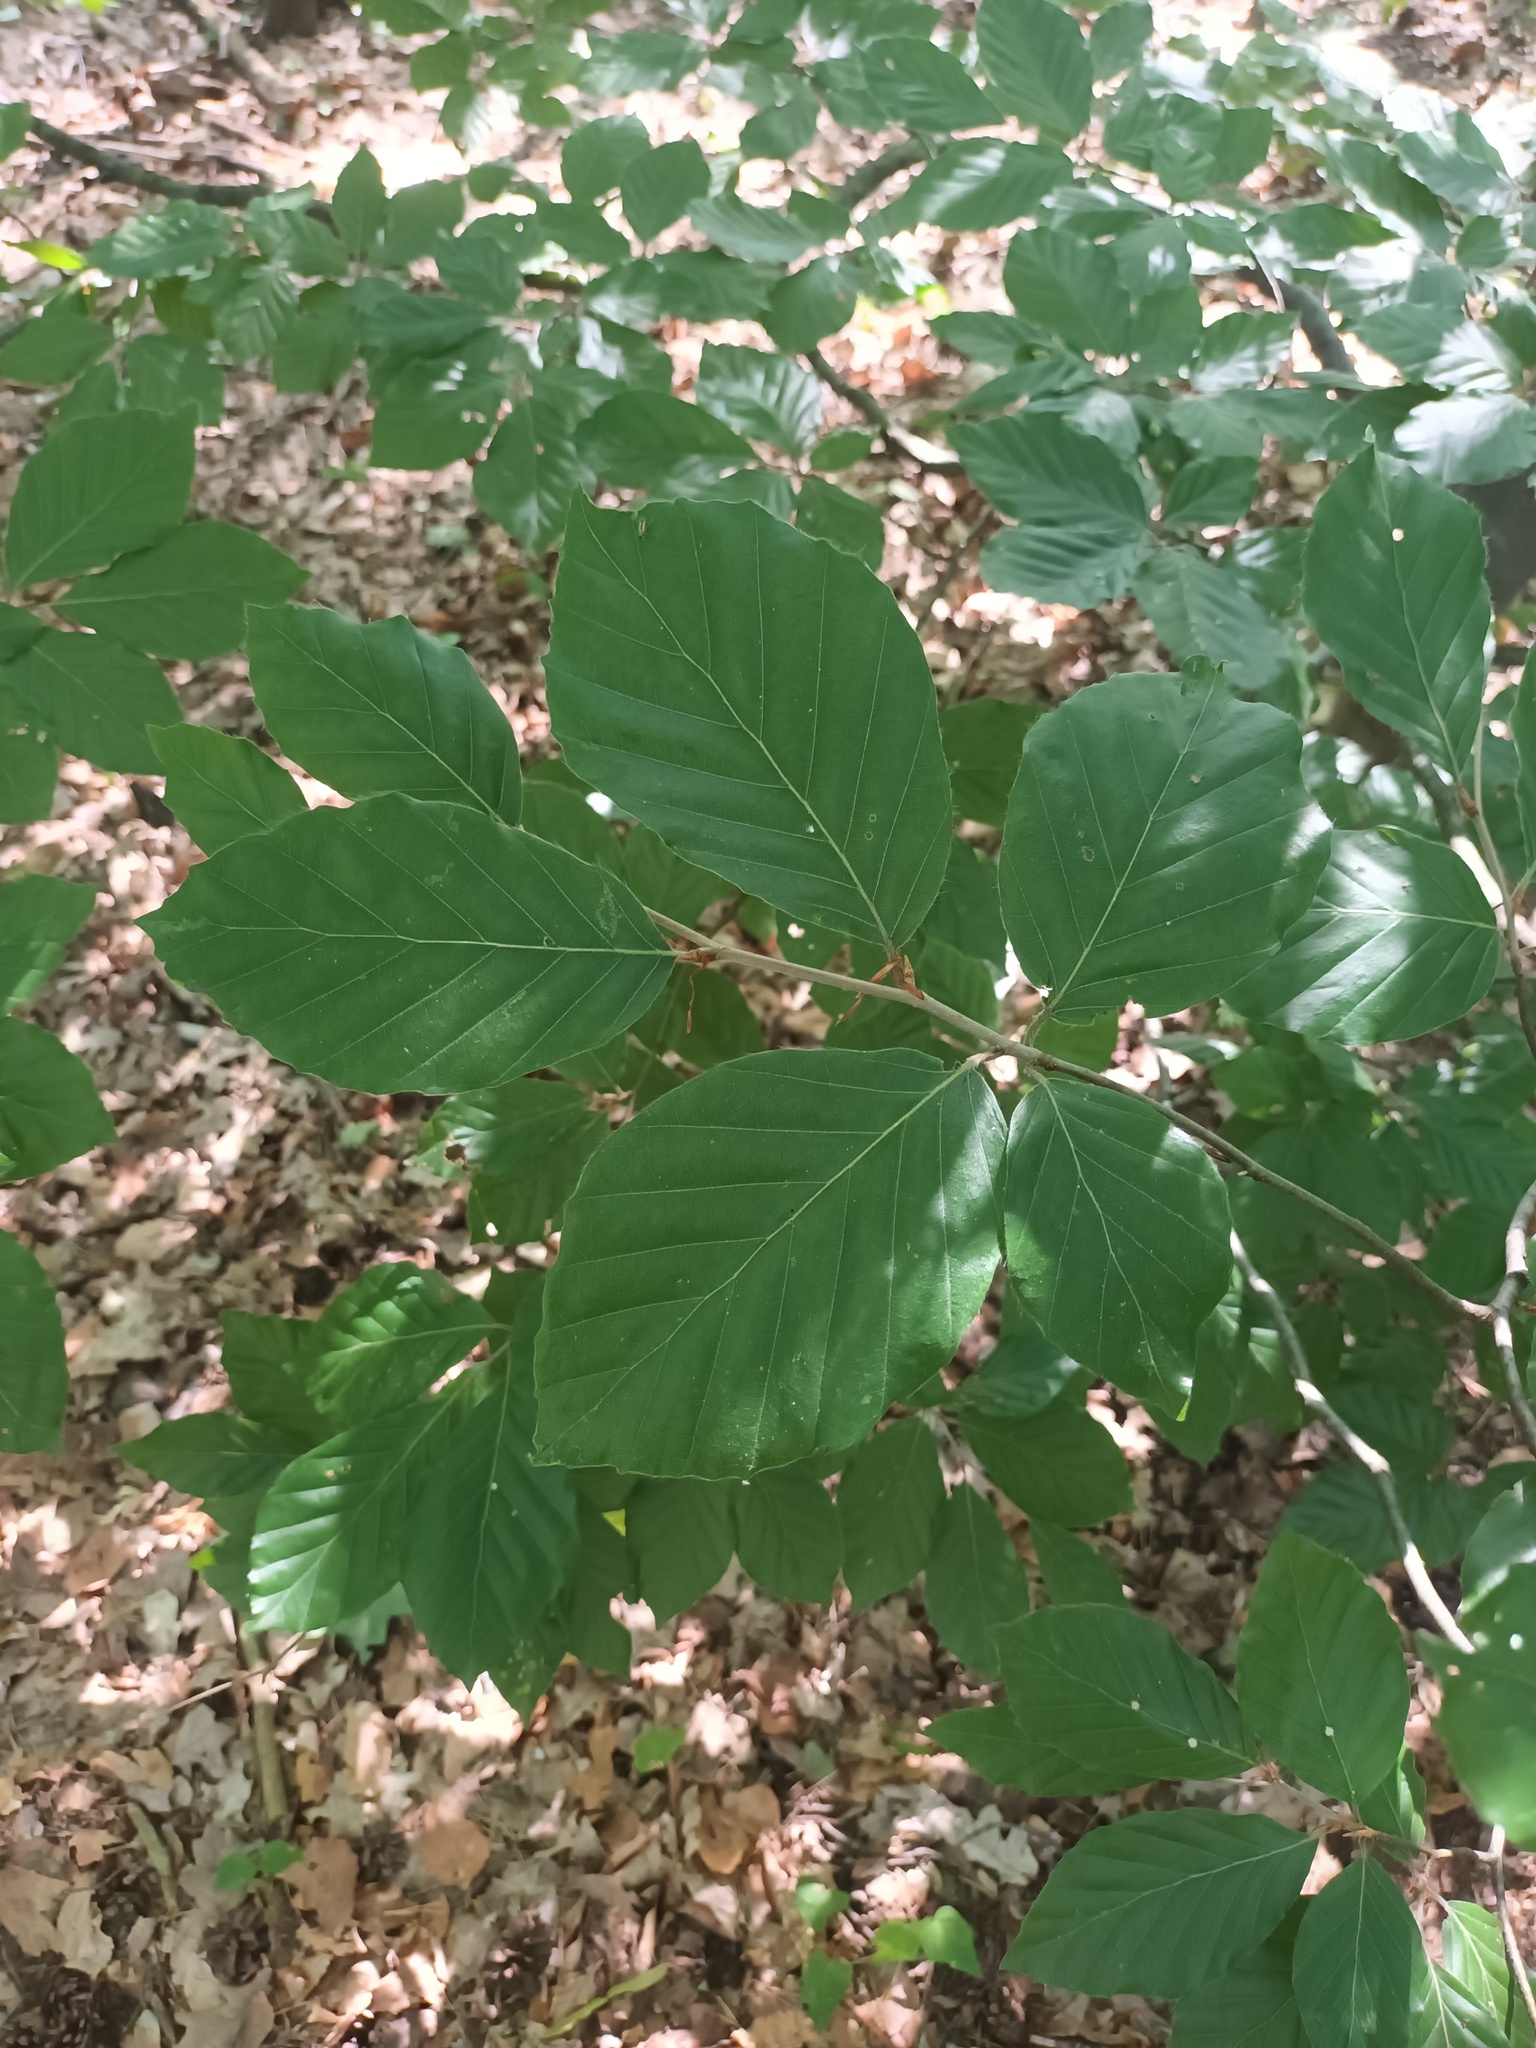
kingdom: Plantae
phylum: Tracheophyta
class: Magnoliopsida
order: Fagales
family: Fagaceae
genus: Fagus
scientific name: Fagus sylvatica
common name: Beech
